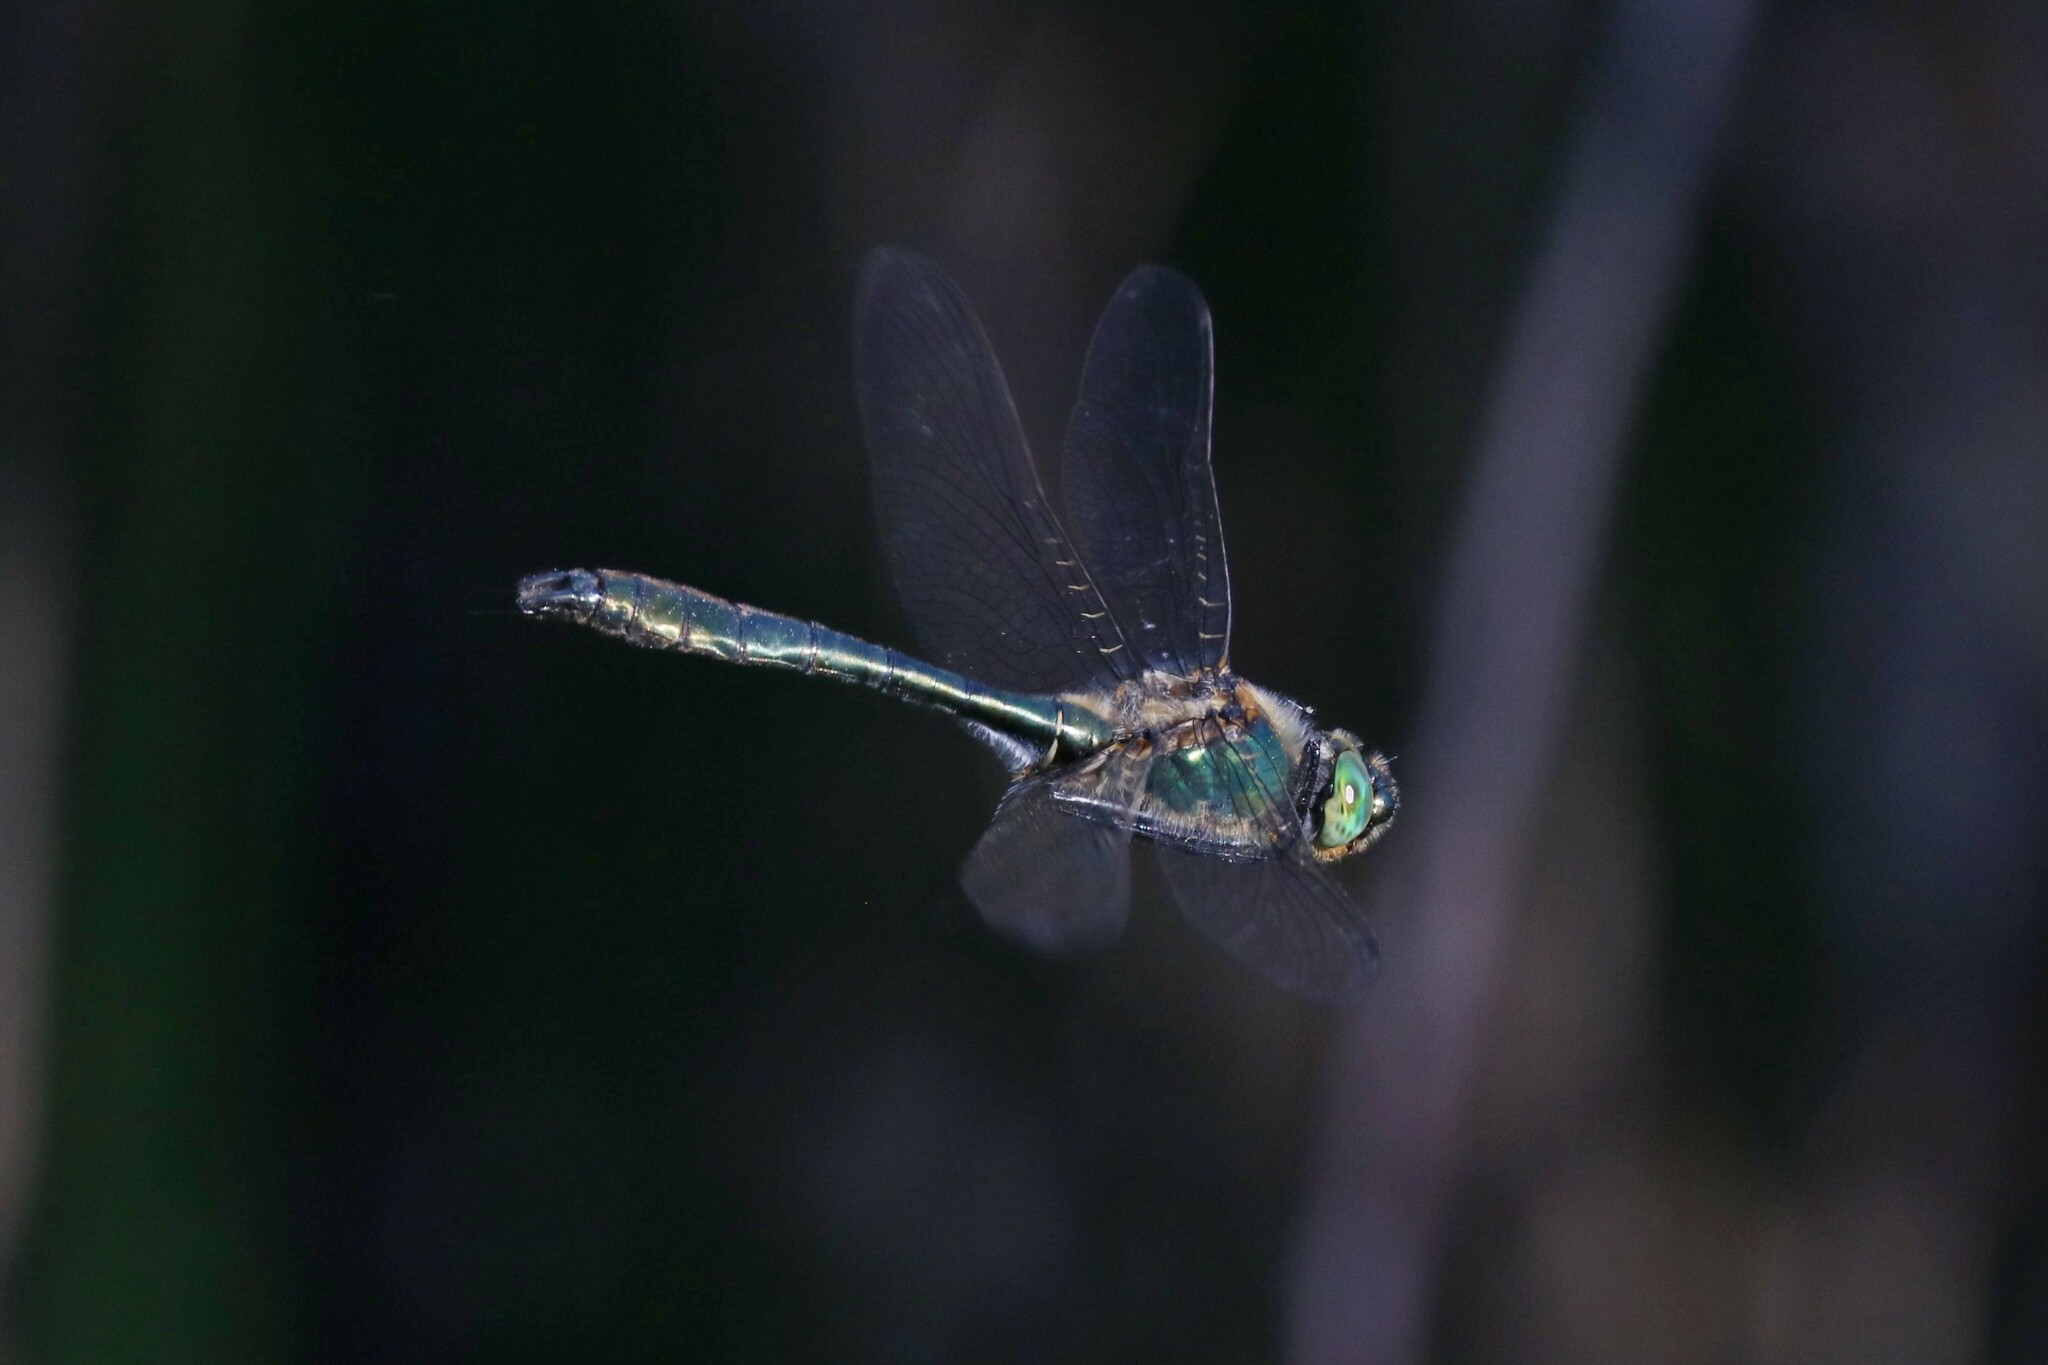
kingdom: Animalia
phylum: Arthropoda
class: Insecta
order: Odonata
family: Corduliidae
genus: Cordulia
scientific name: Cordulia aenea
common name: Downy emerald
